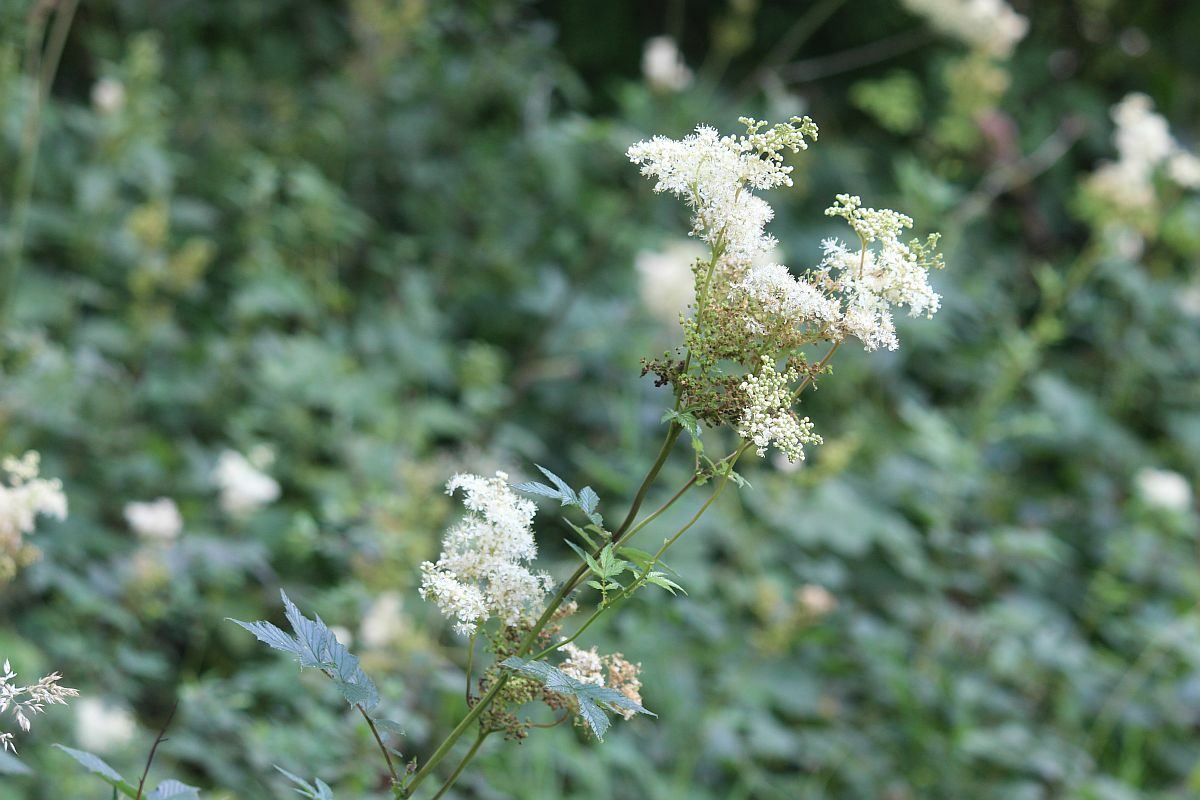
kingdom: Plantae
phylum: Tracheophyta
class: Magnoliopsida
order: Rosales
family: Rosaceae
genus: Filipendula
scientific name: Filipendula ulmaria
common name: Meadowsweet
